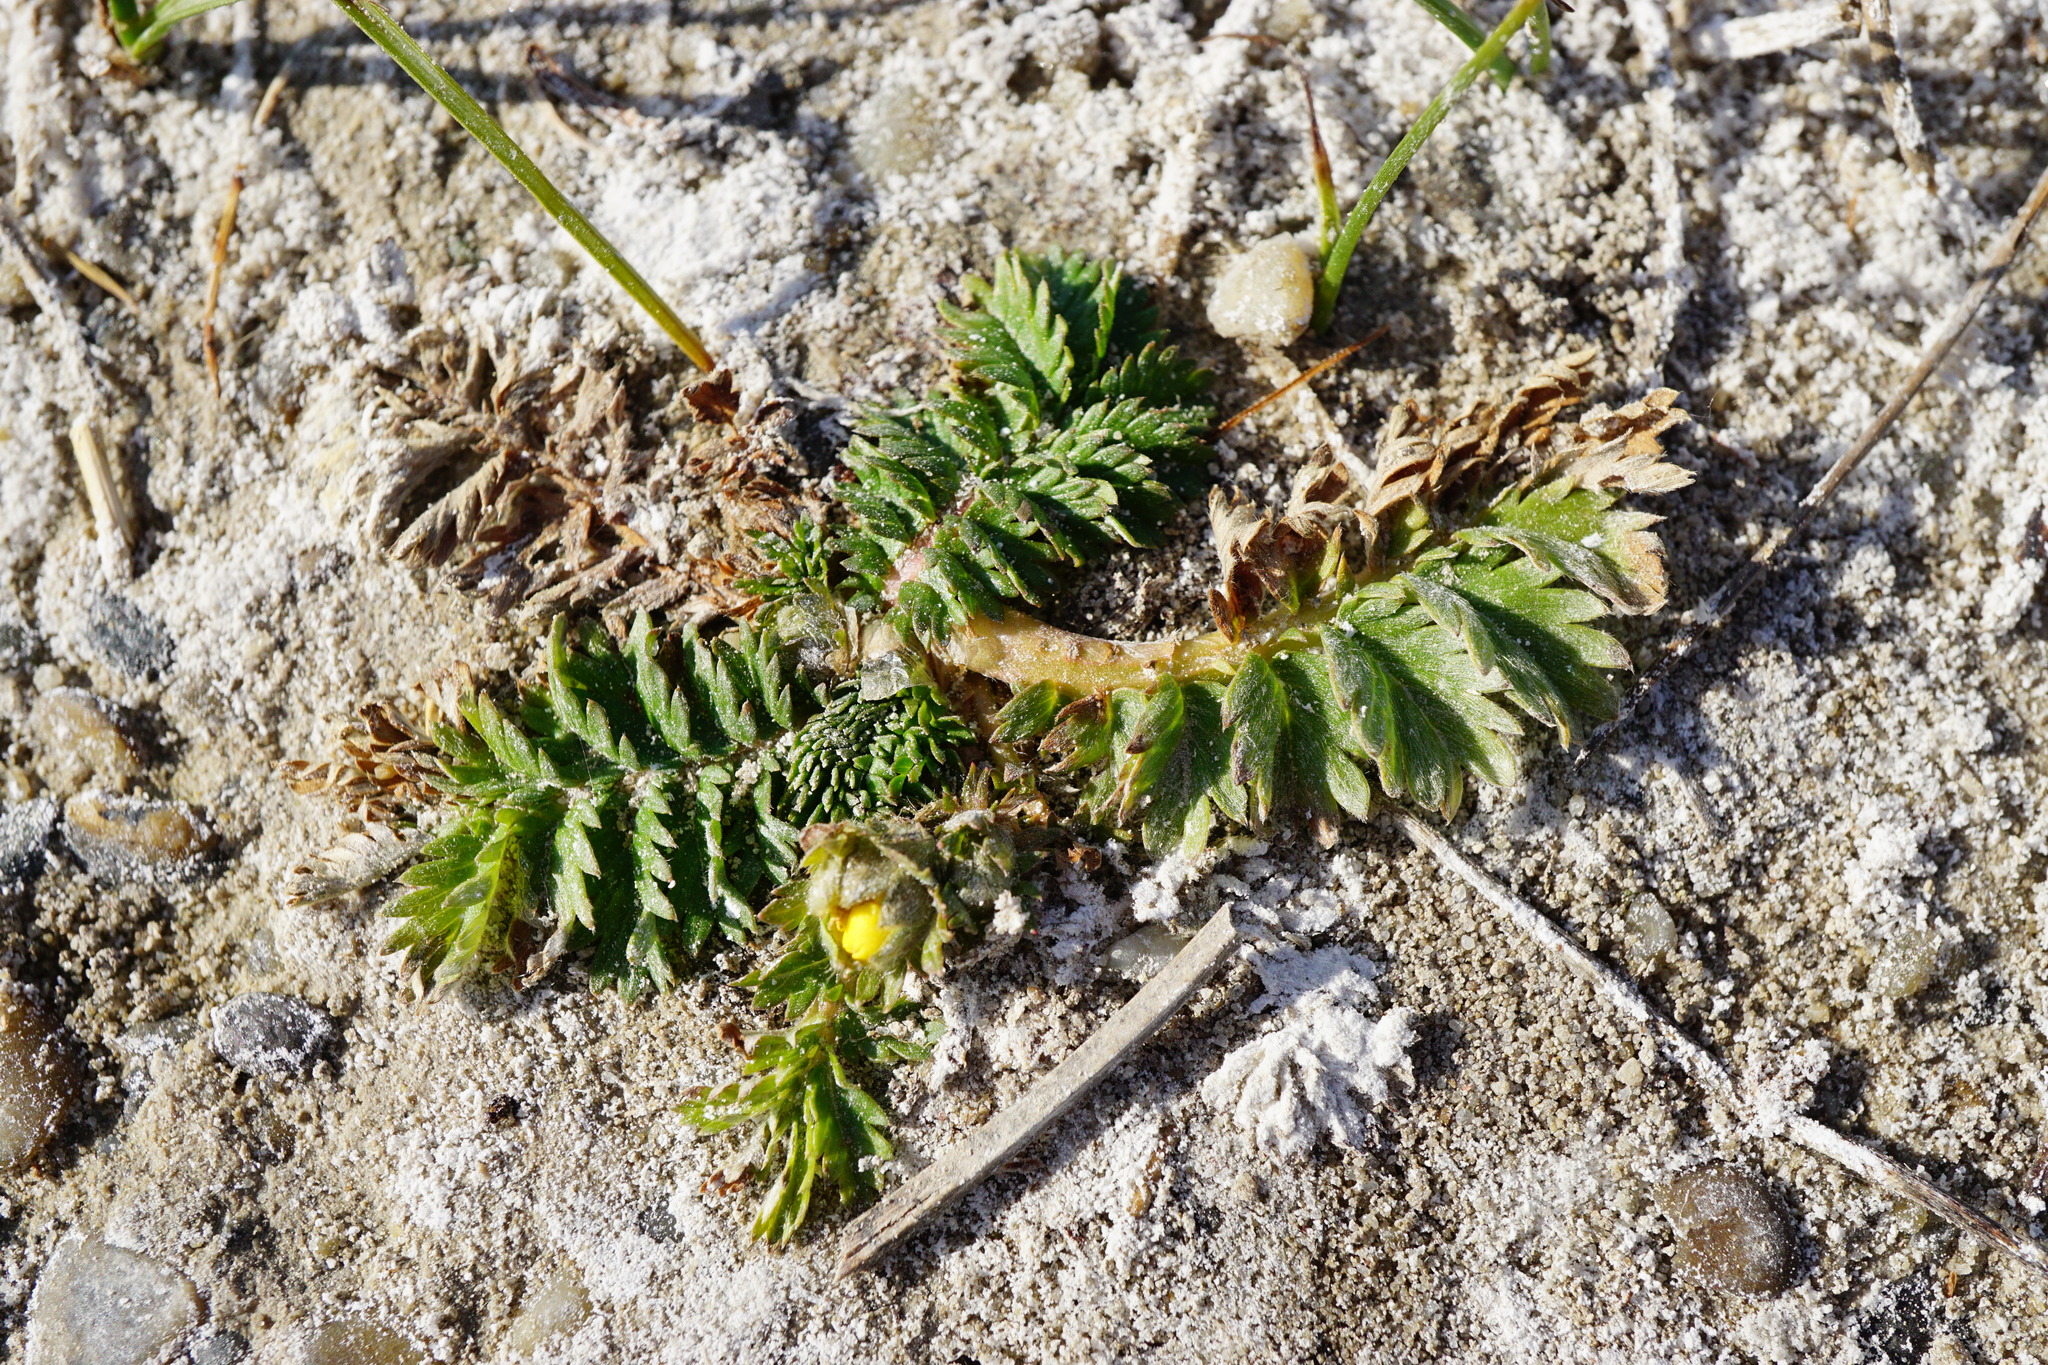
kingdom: Plantae
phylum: Tracheophyta
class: Magnoliopsida
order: Rosales
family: Rosaceae
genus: Argentina
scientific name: Argentina anserina
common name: Common silverweed
